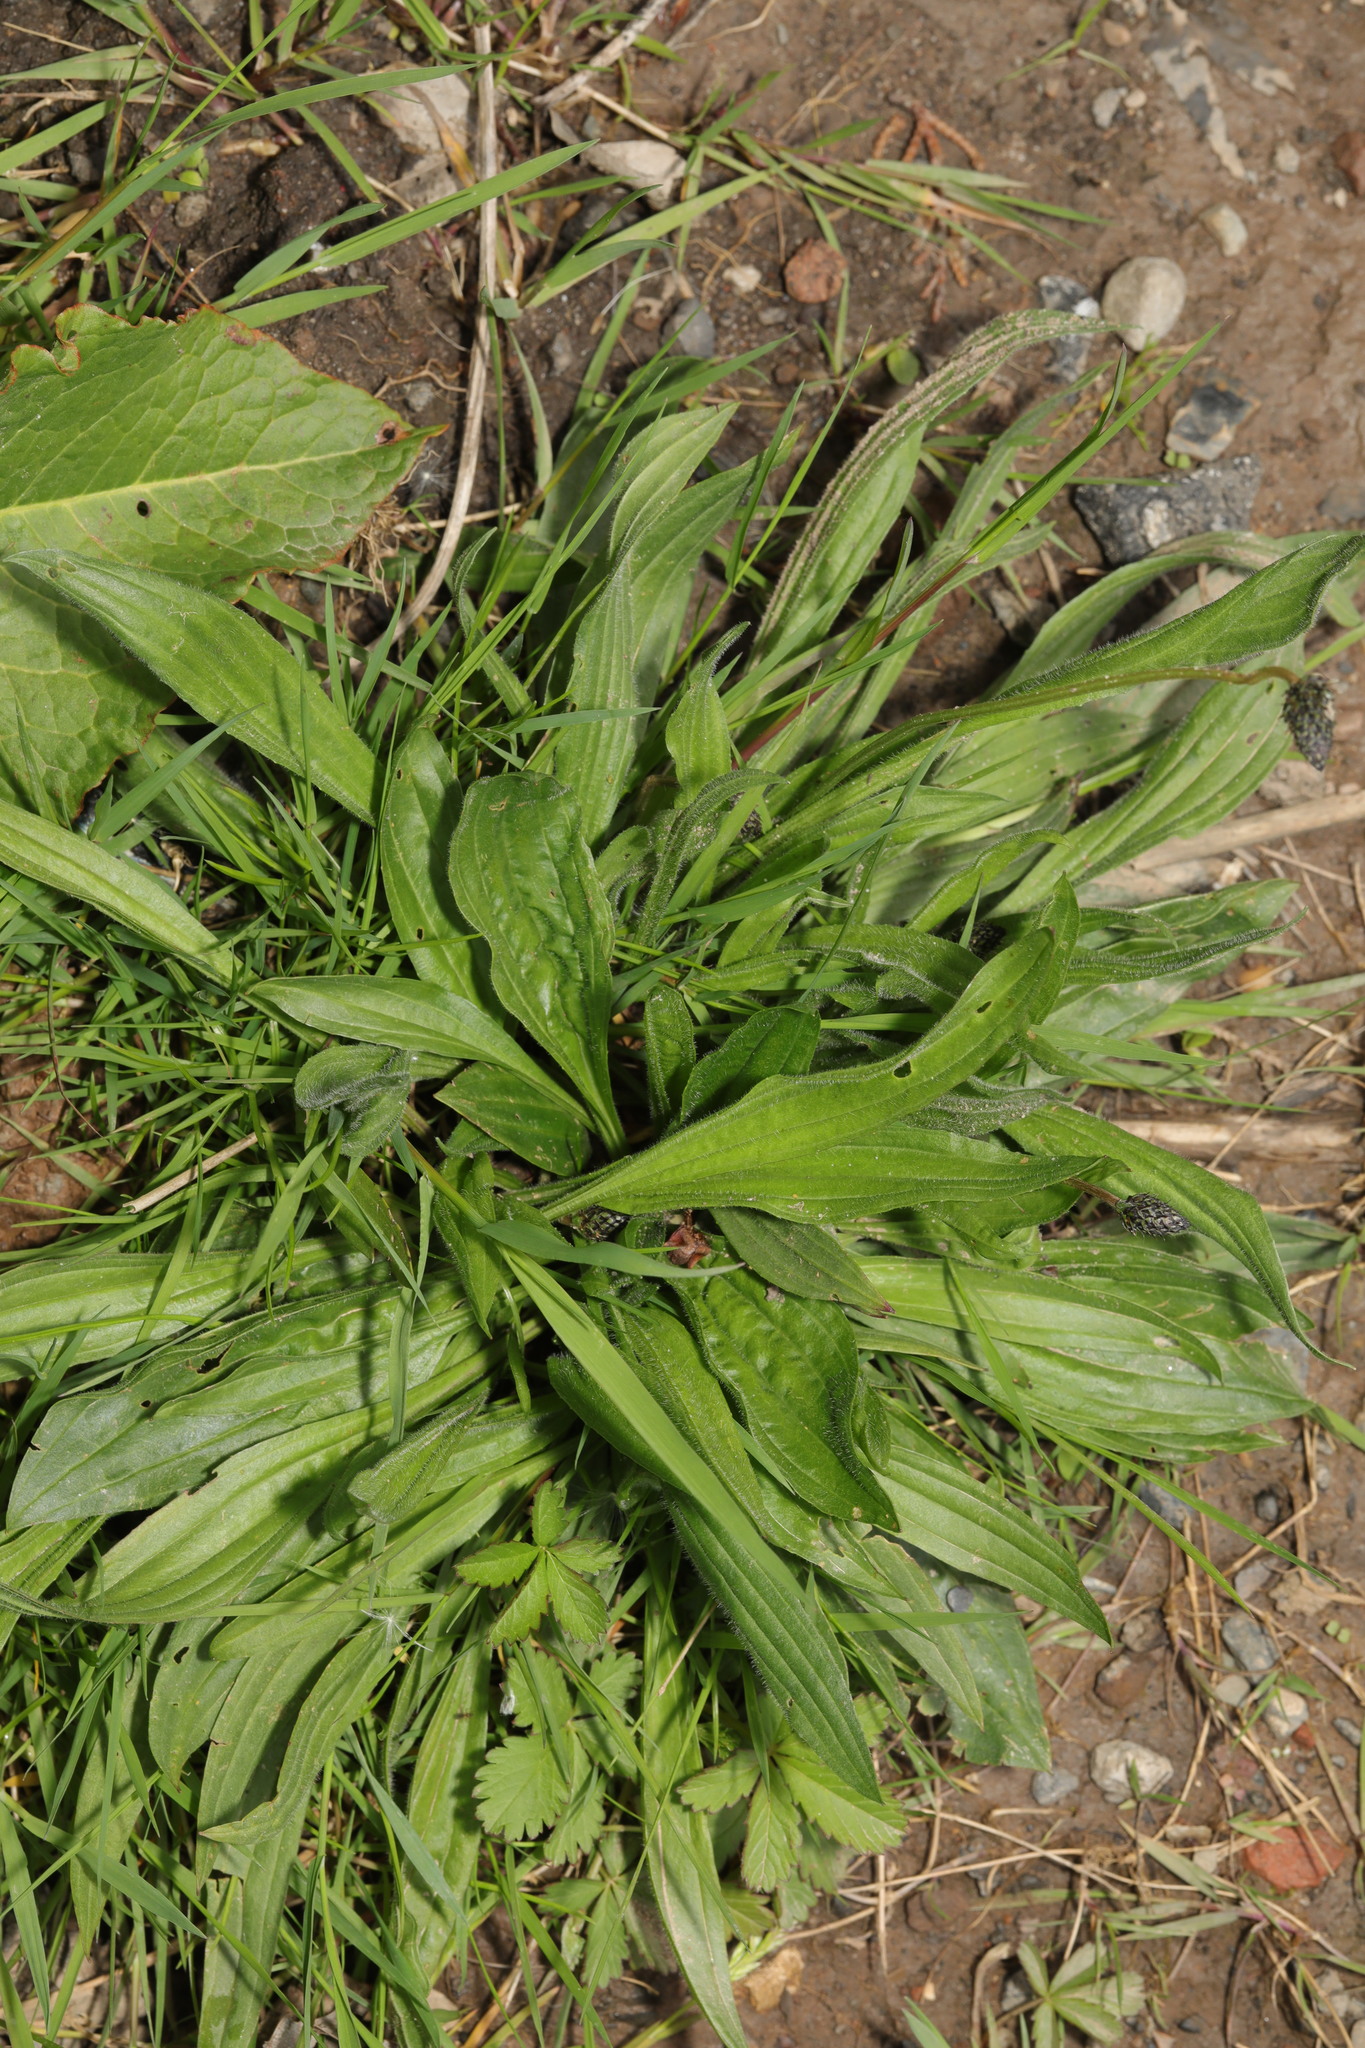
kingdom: Plantae
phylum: Tracheophyta
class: Magnoliopsida
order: Lamiales
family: Plantaginaceae
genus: Plantago
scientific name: Plantago lanceolata
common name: Ribwort plantain
